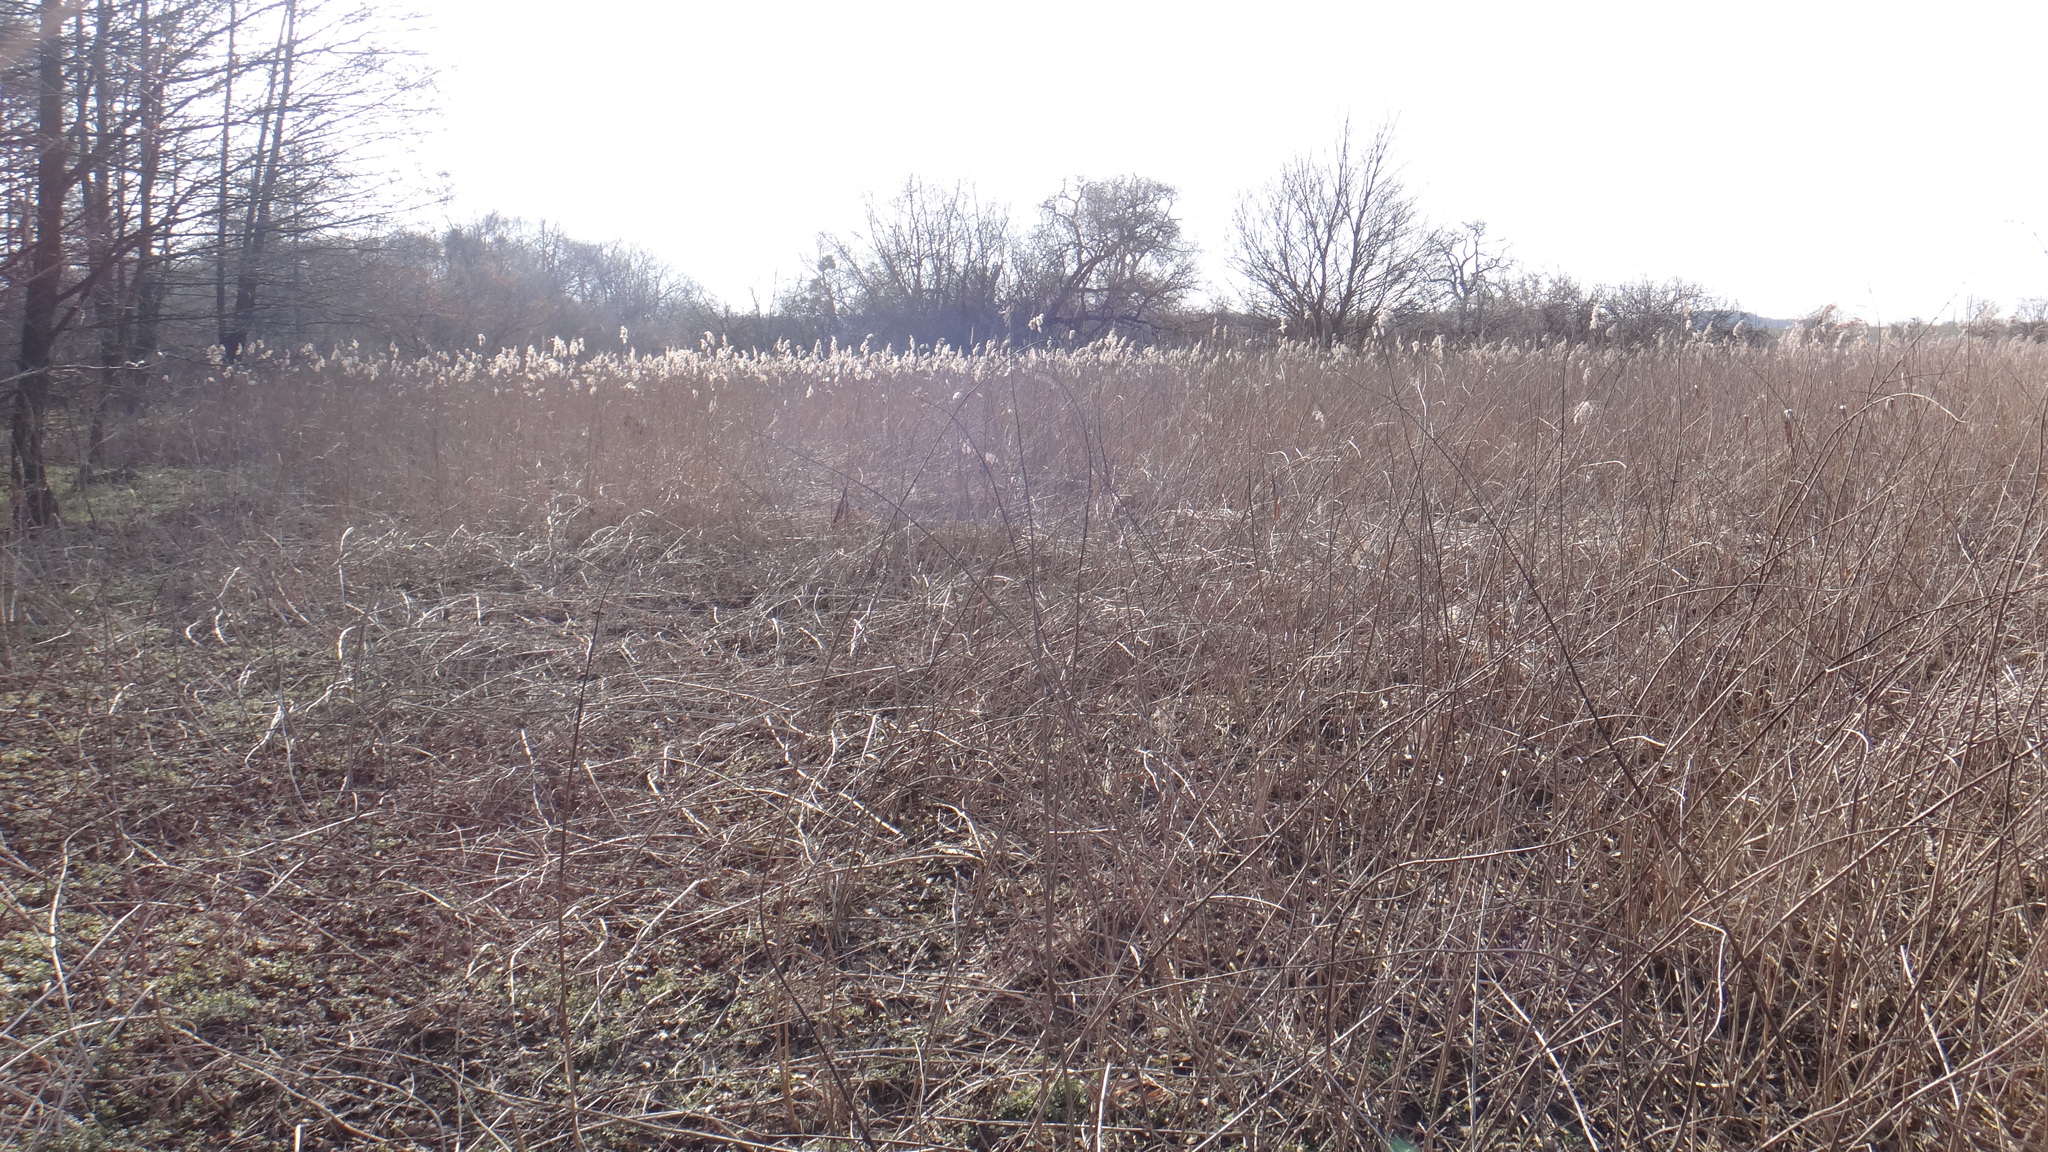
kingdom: Plantae
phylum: Tracheophyta
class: Liliopsida
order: Poales
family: Poaceae
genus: Phragmites
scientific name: Phragmites australis
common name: Common reed
